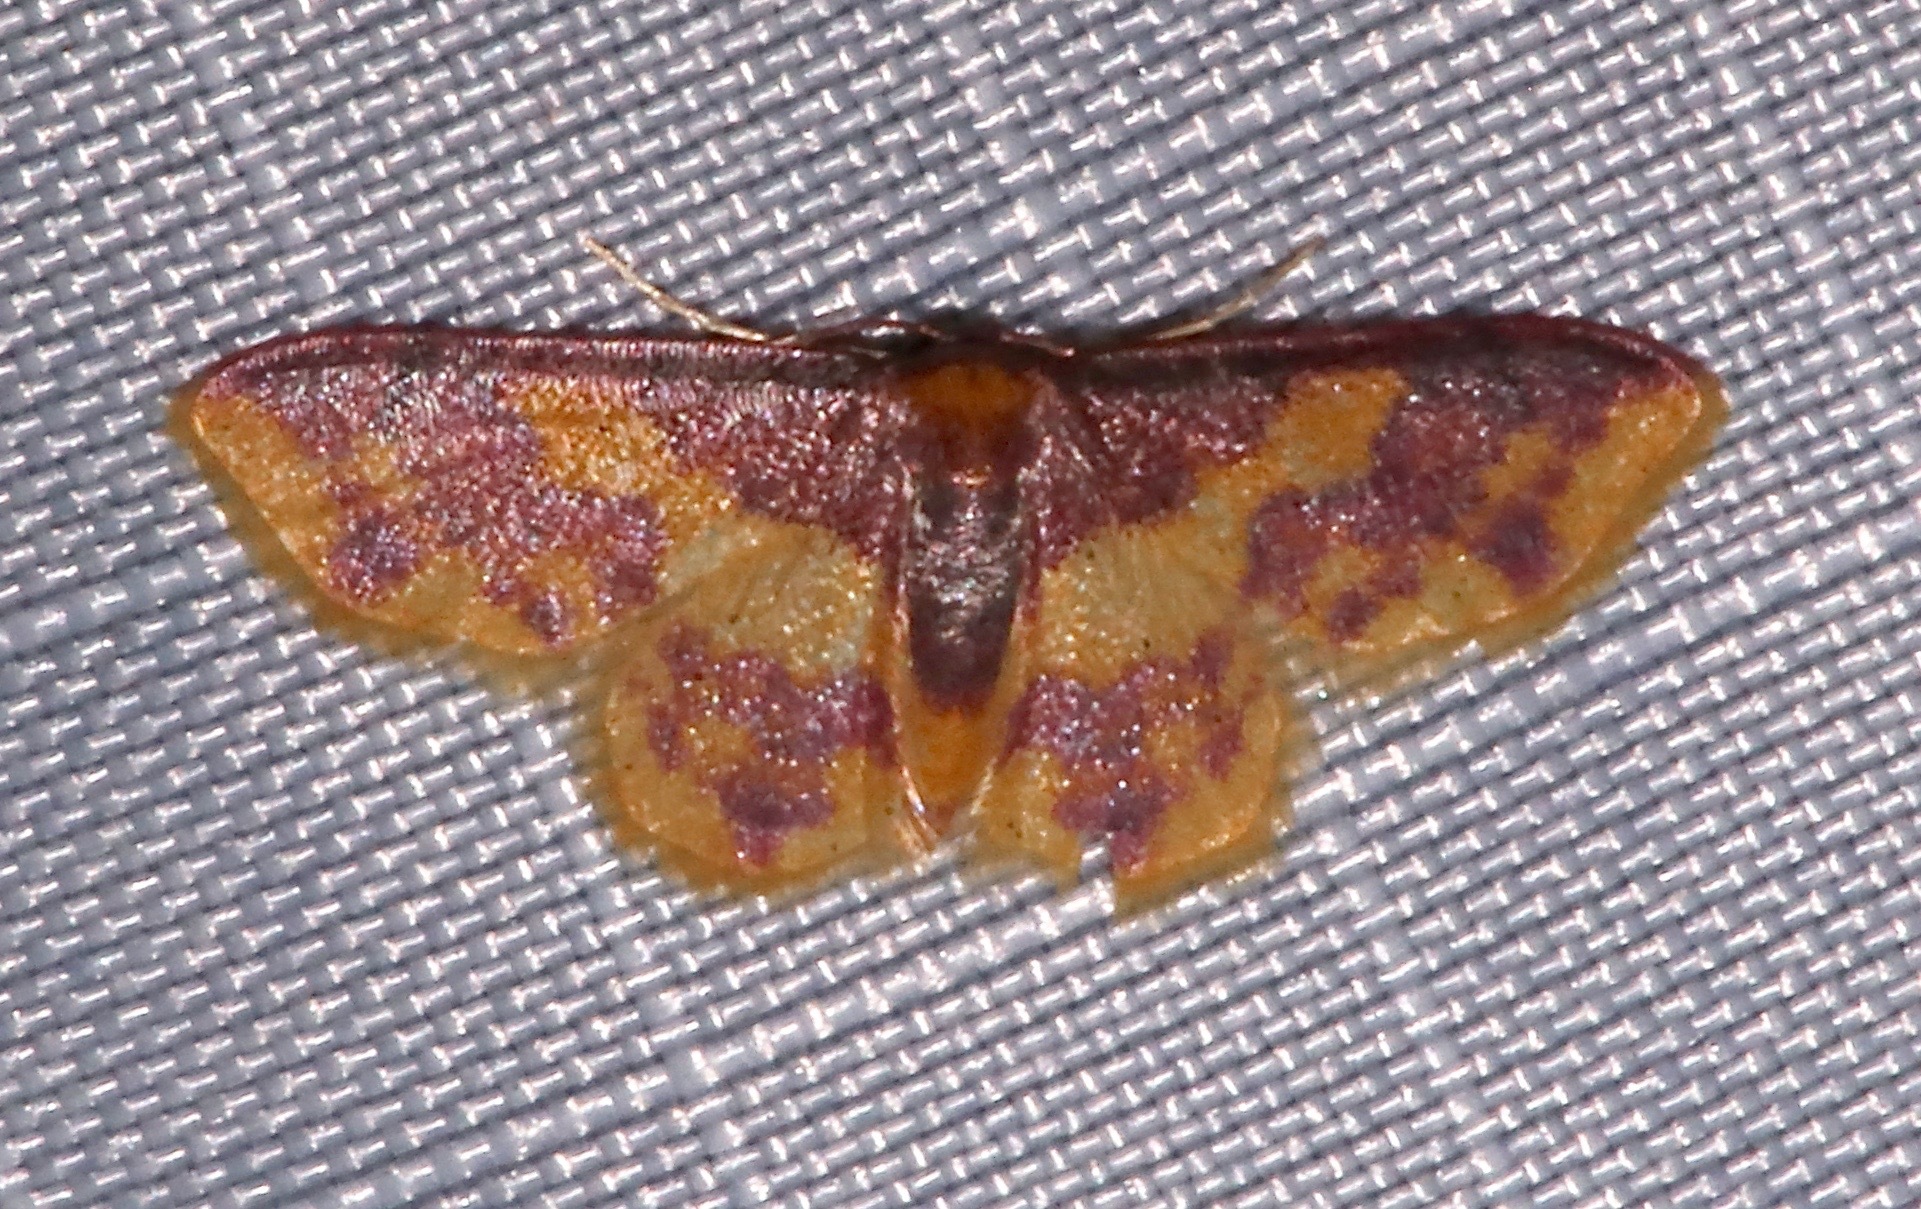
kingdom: Animalia
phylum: Arthropoda
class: Insecta
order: Lepidoptera
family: Geometridae
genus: Lophosis
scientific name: Lophosis labeculata
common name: Stained lophosis moth
